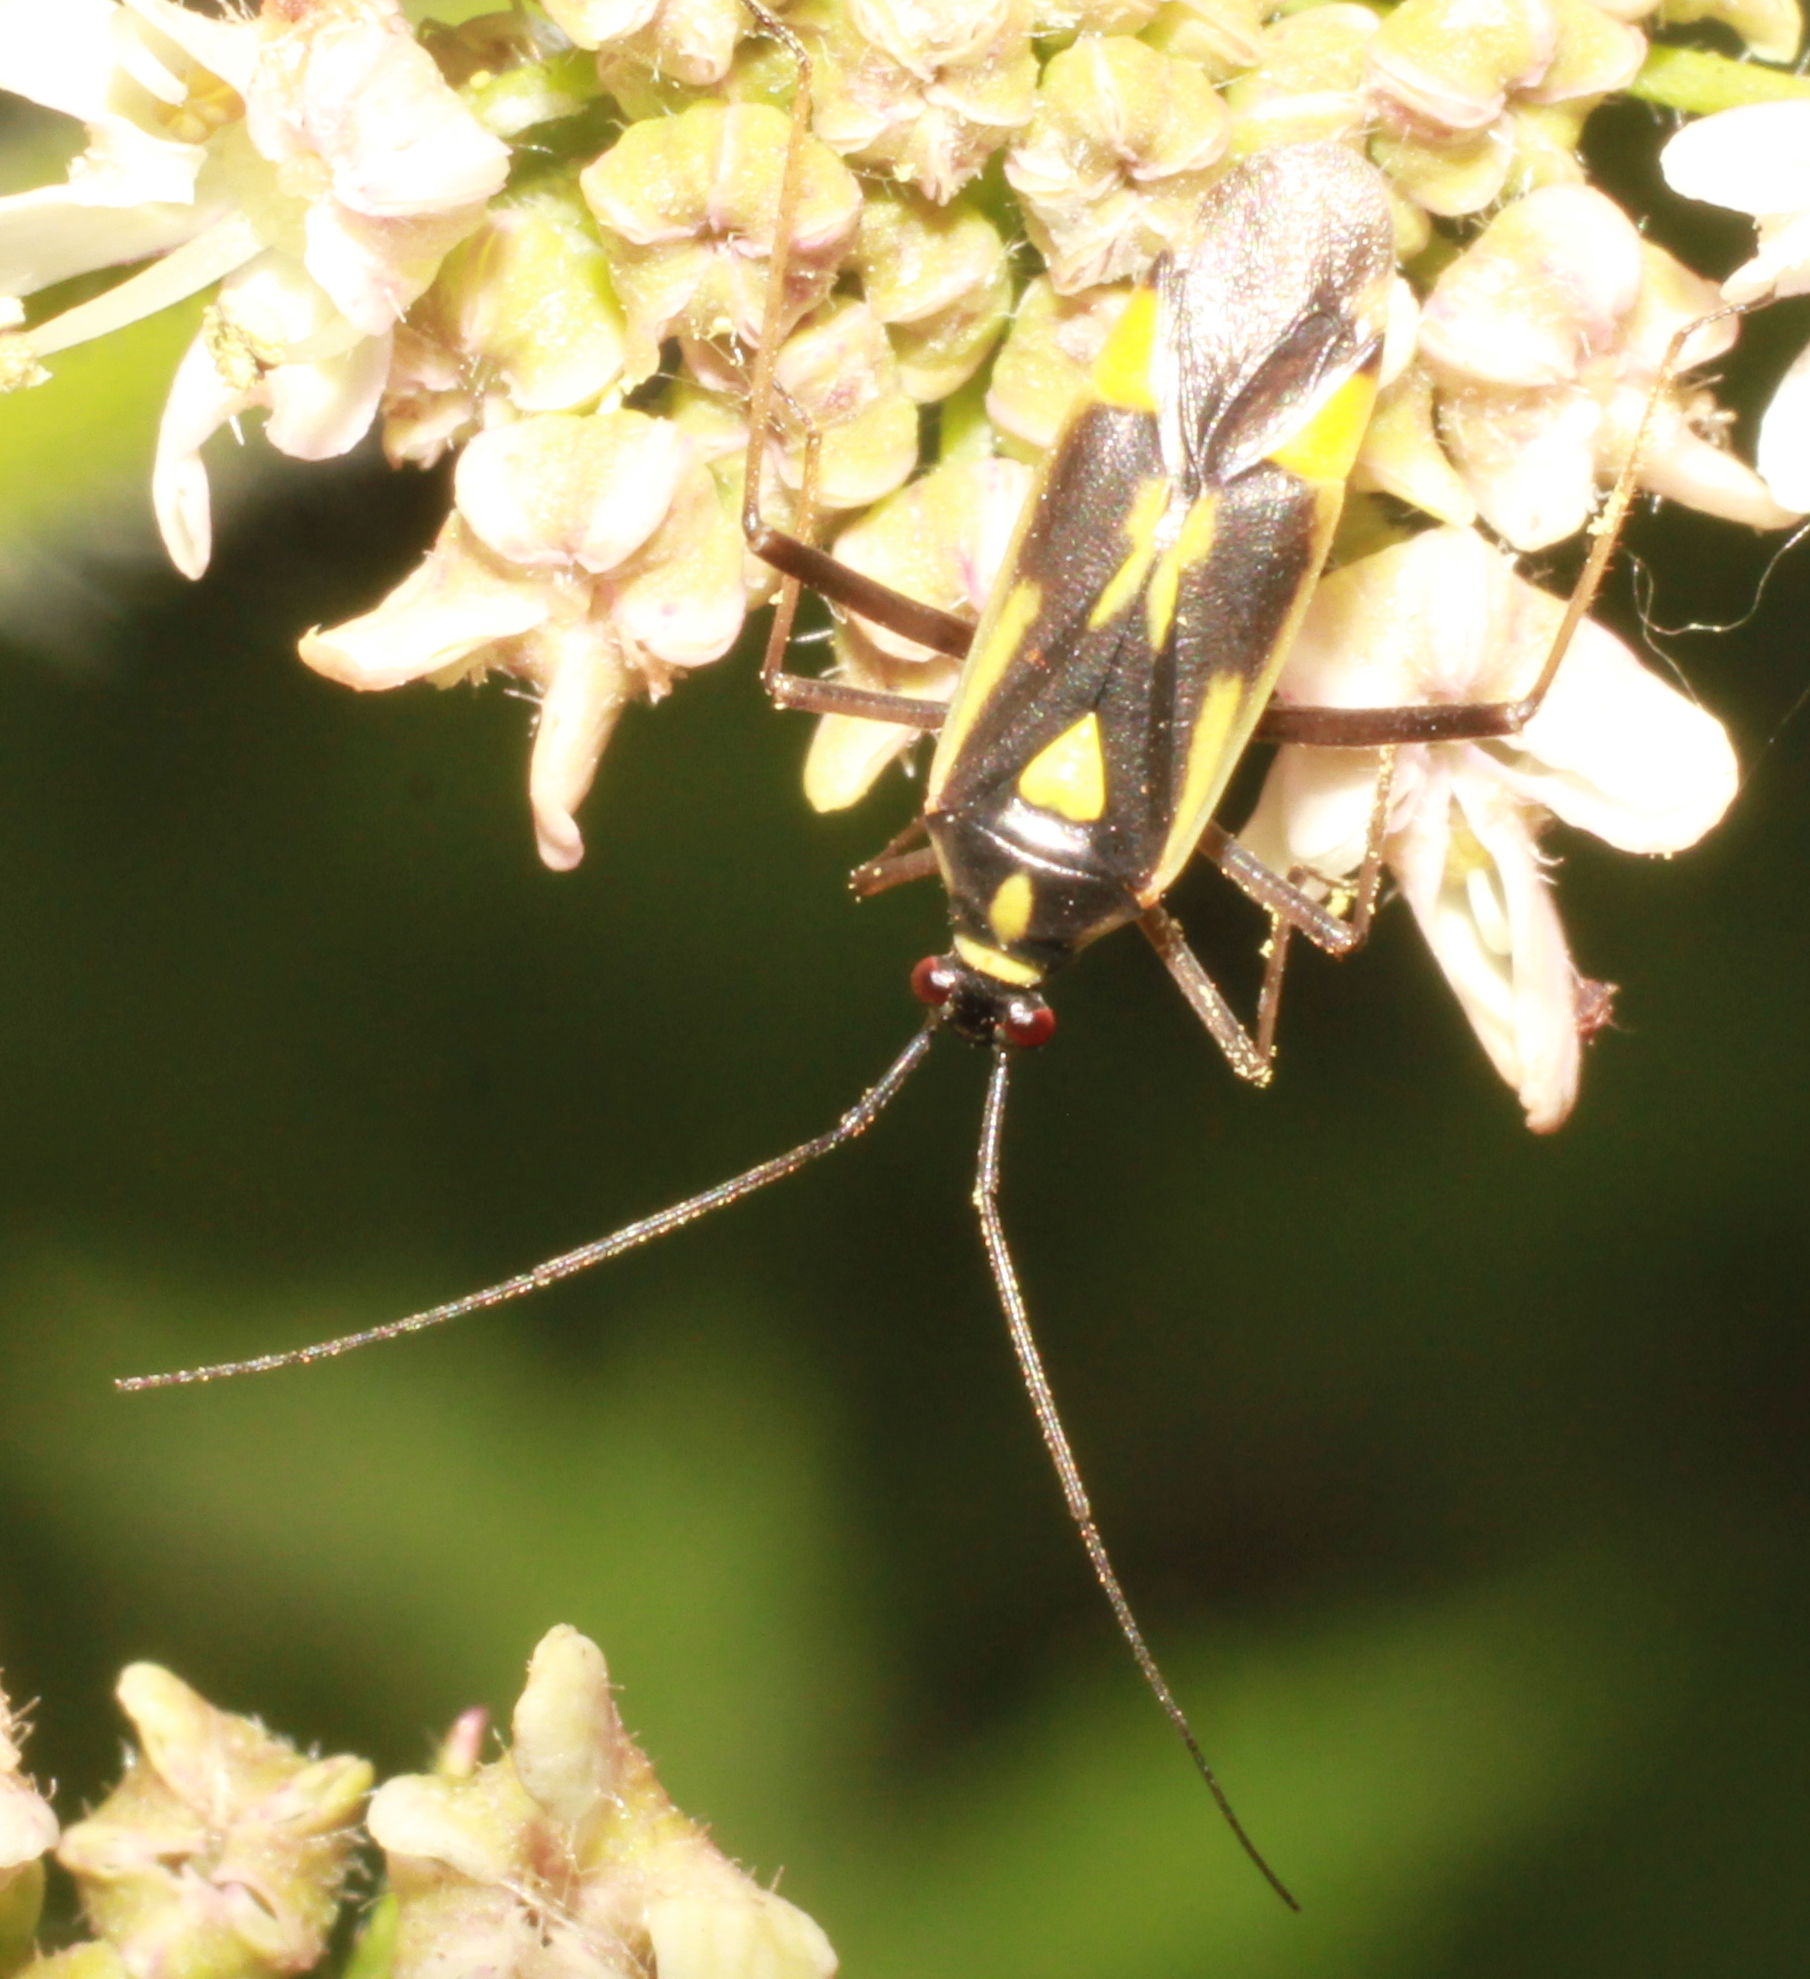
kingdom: Animalia
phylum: Arthropoda
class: Insecta
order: Hemiptera
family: Miridae
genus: Grypocoris
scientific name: Grypocoris stysi
